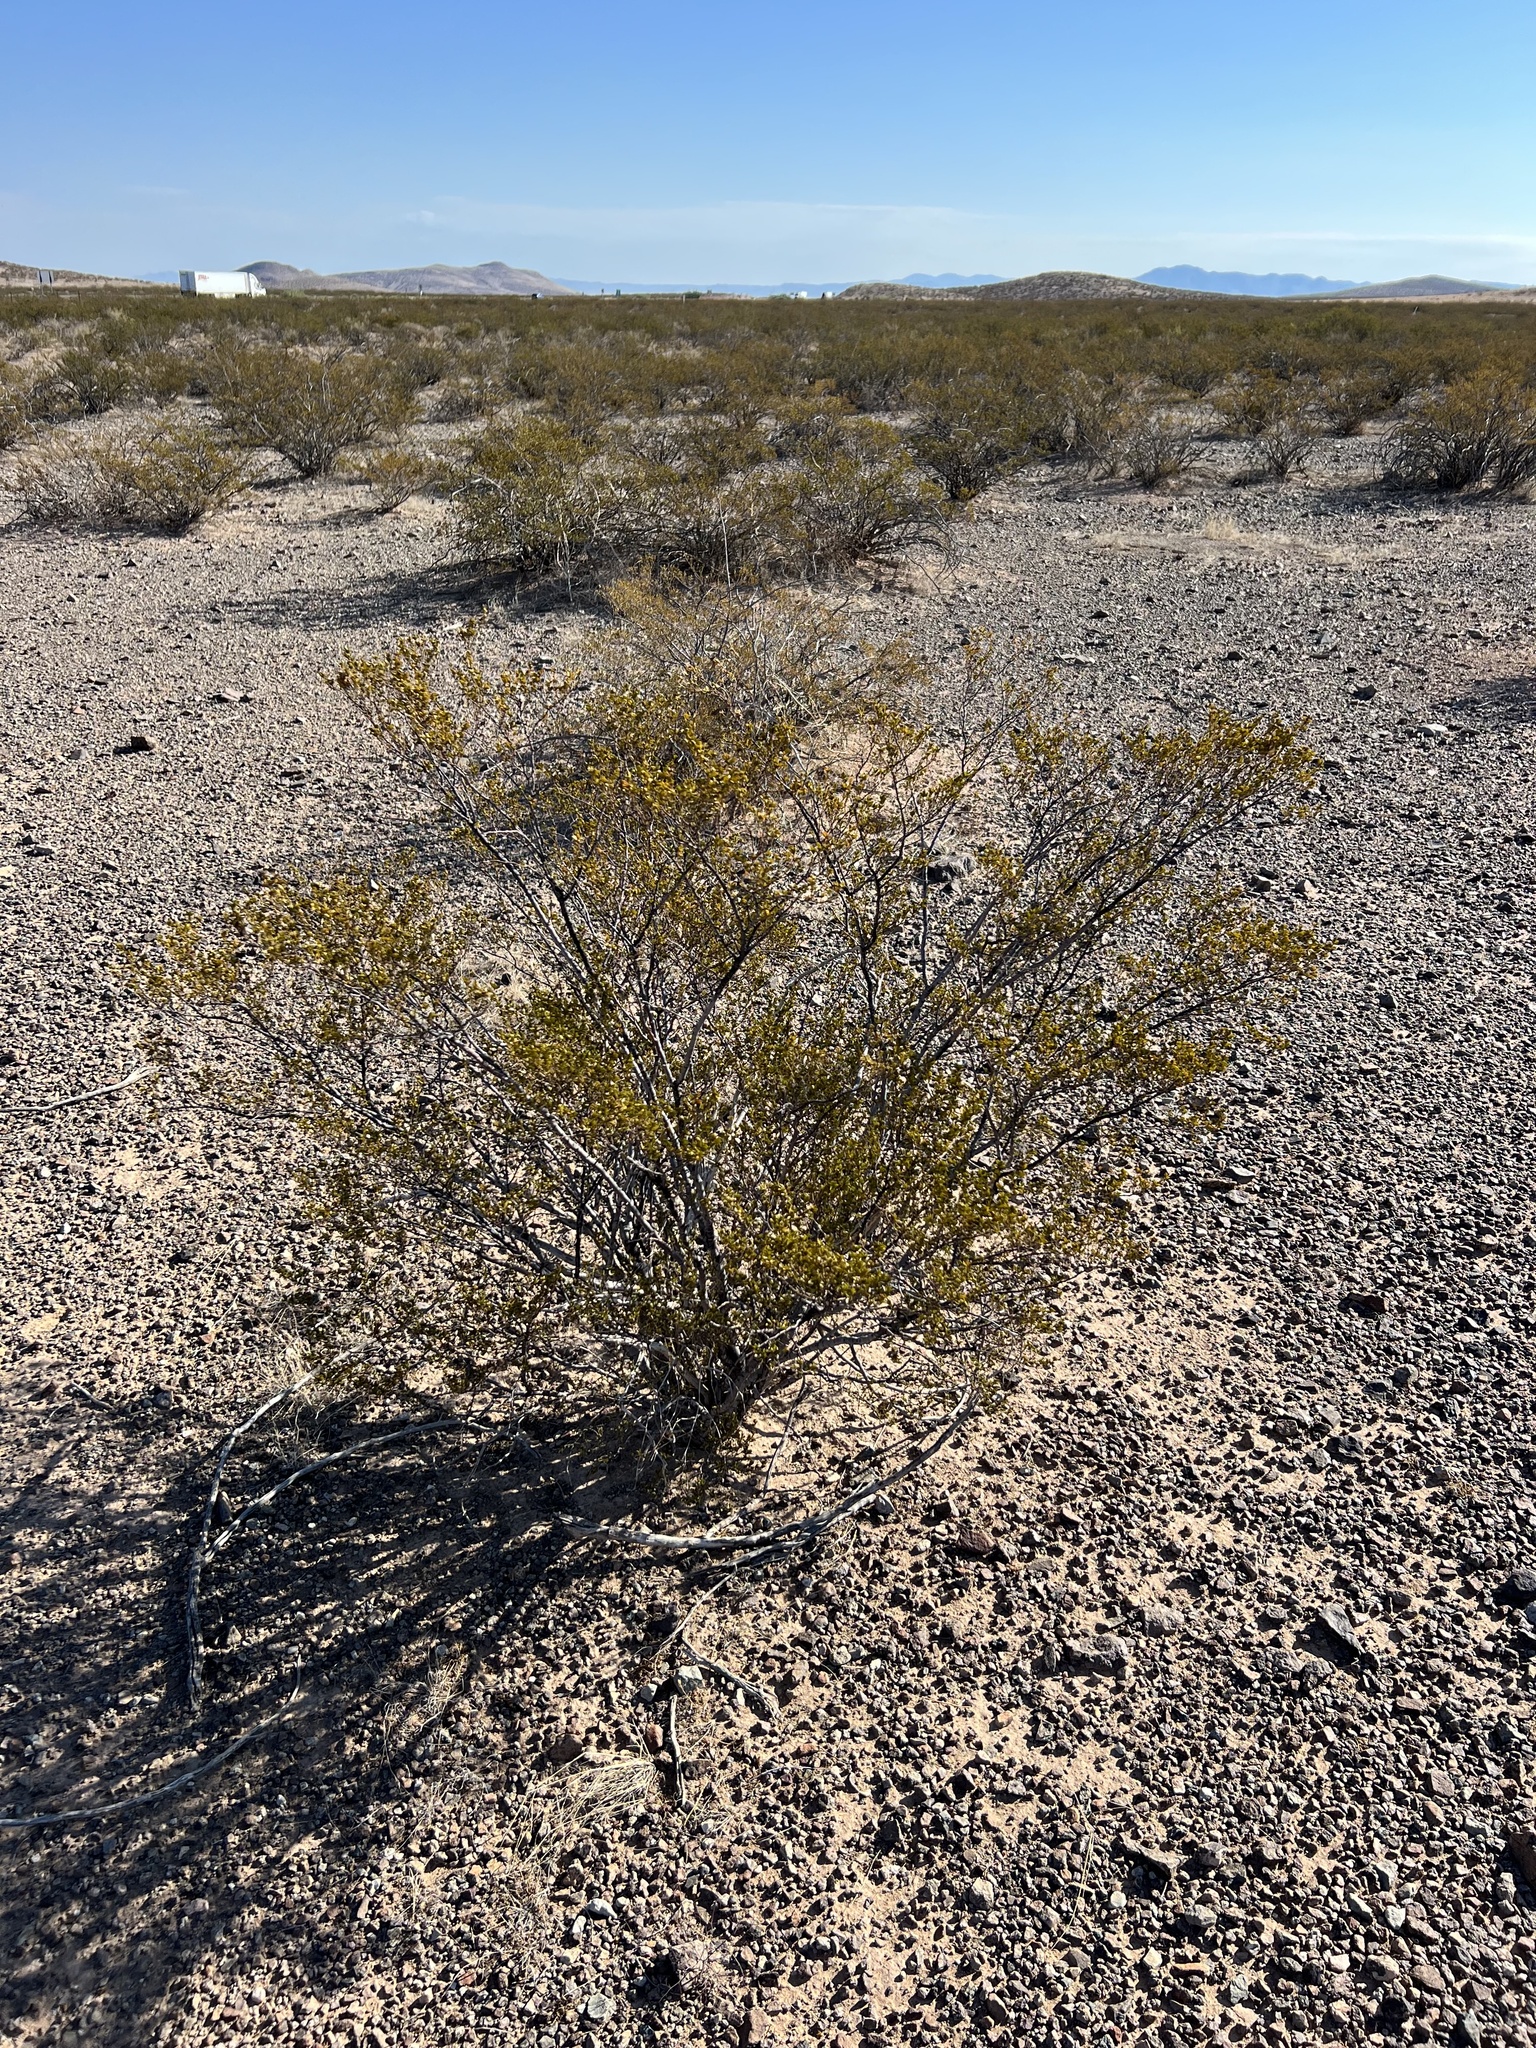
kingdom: Plantae
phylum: Tracheophyta
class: Magnoliopsida
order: Zygophyllales
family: Zygophyllaceae
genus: Larrea
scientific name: Larrea tridentata
